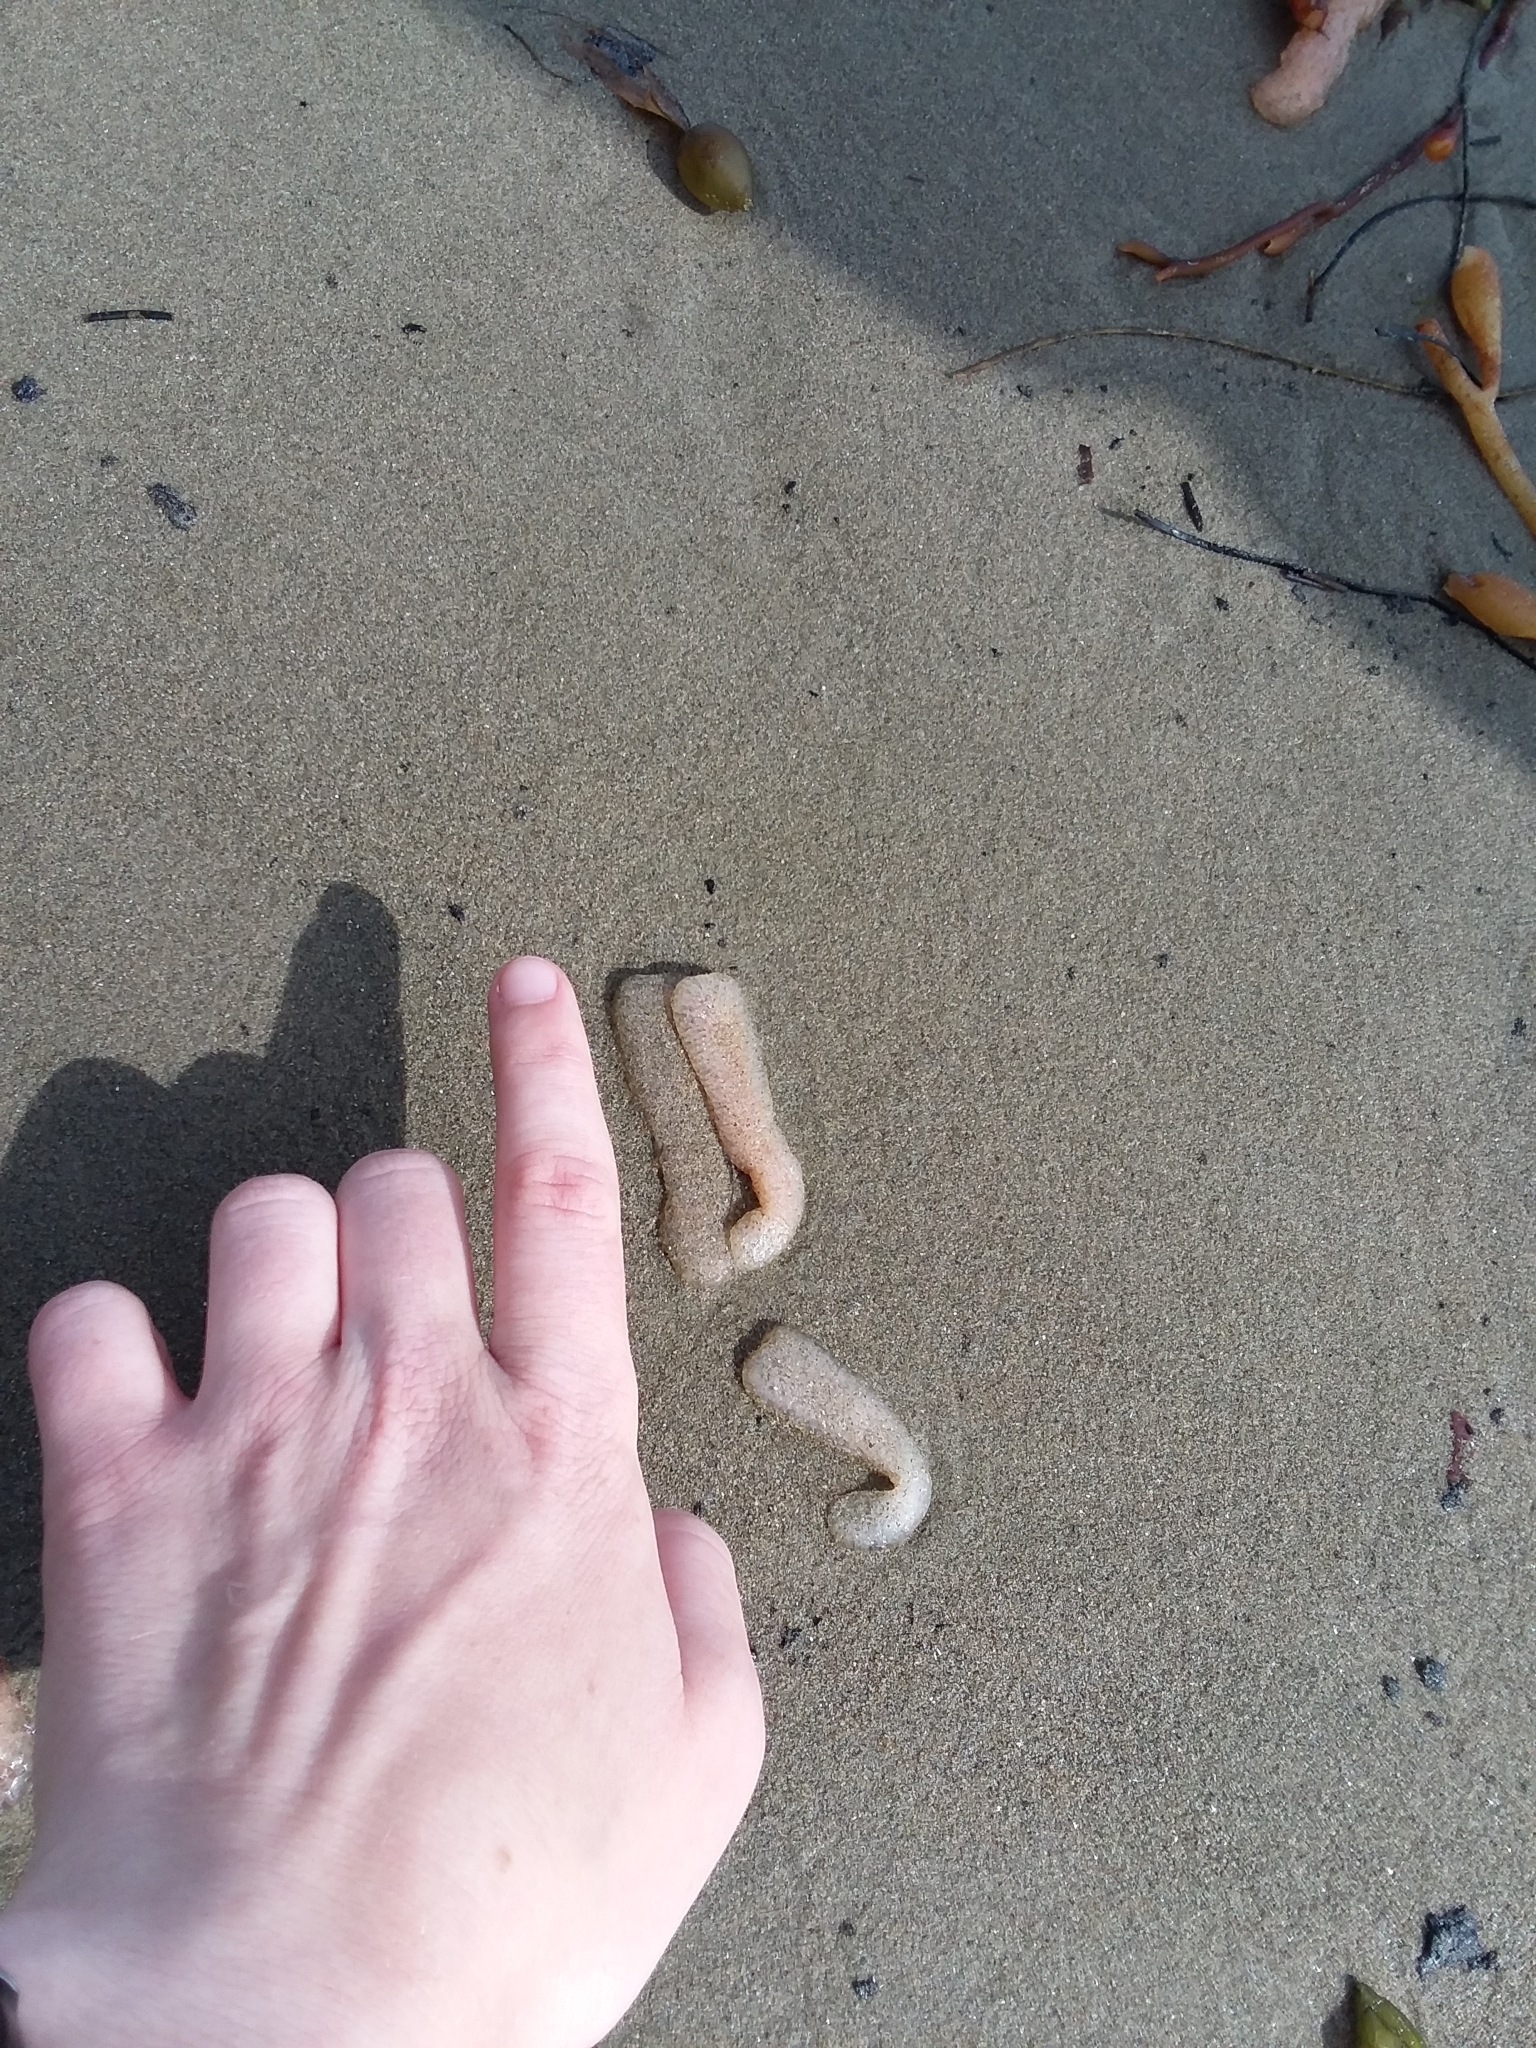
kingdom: Animalia
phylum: Chordata
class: Thaliacea
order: Pyrosomatida
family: Pyrosomatidae
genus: Pyrosoma
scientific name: Pyrosoma atlanticum
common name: Atlantic pyrosomes
